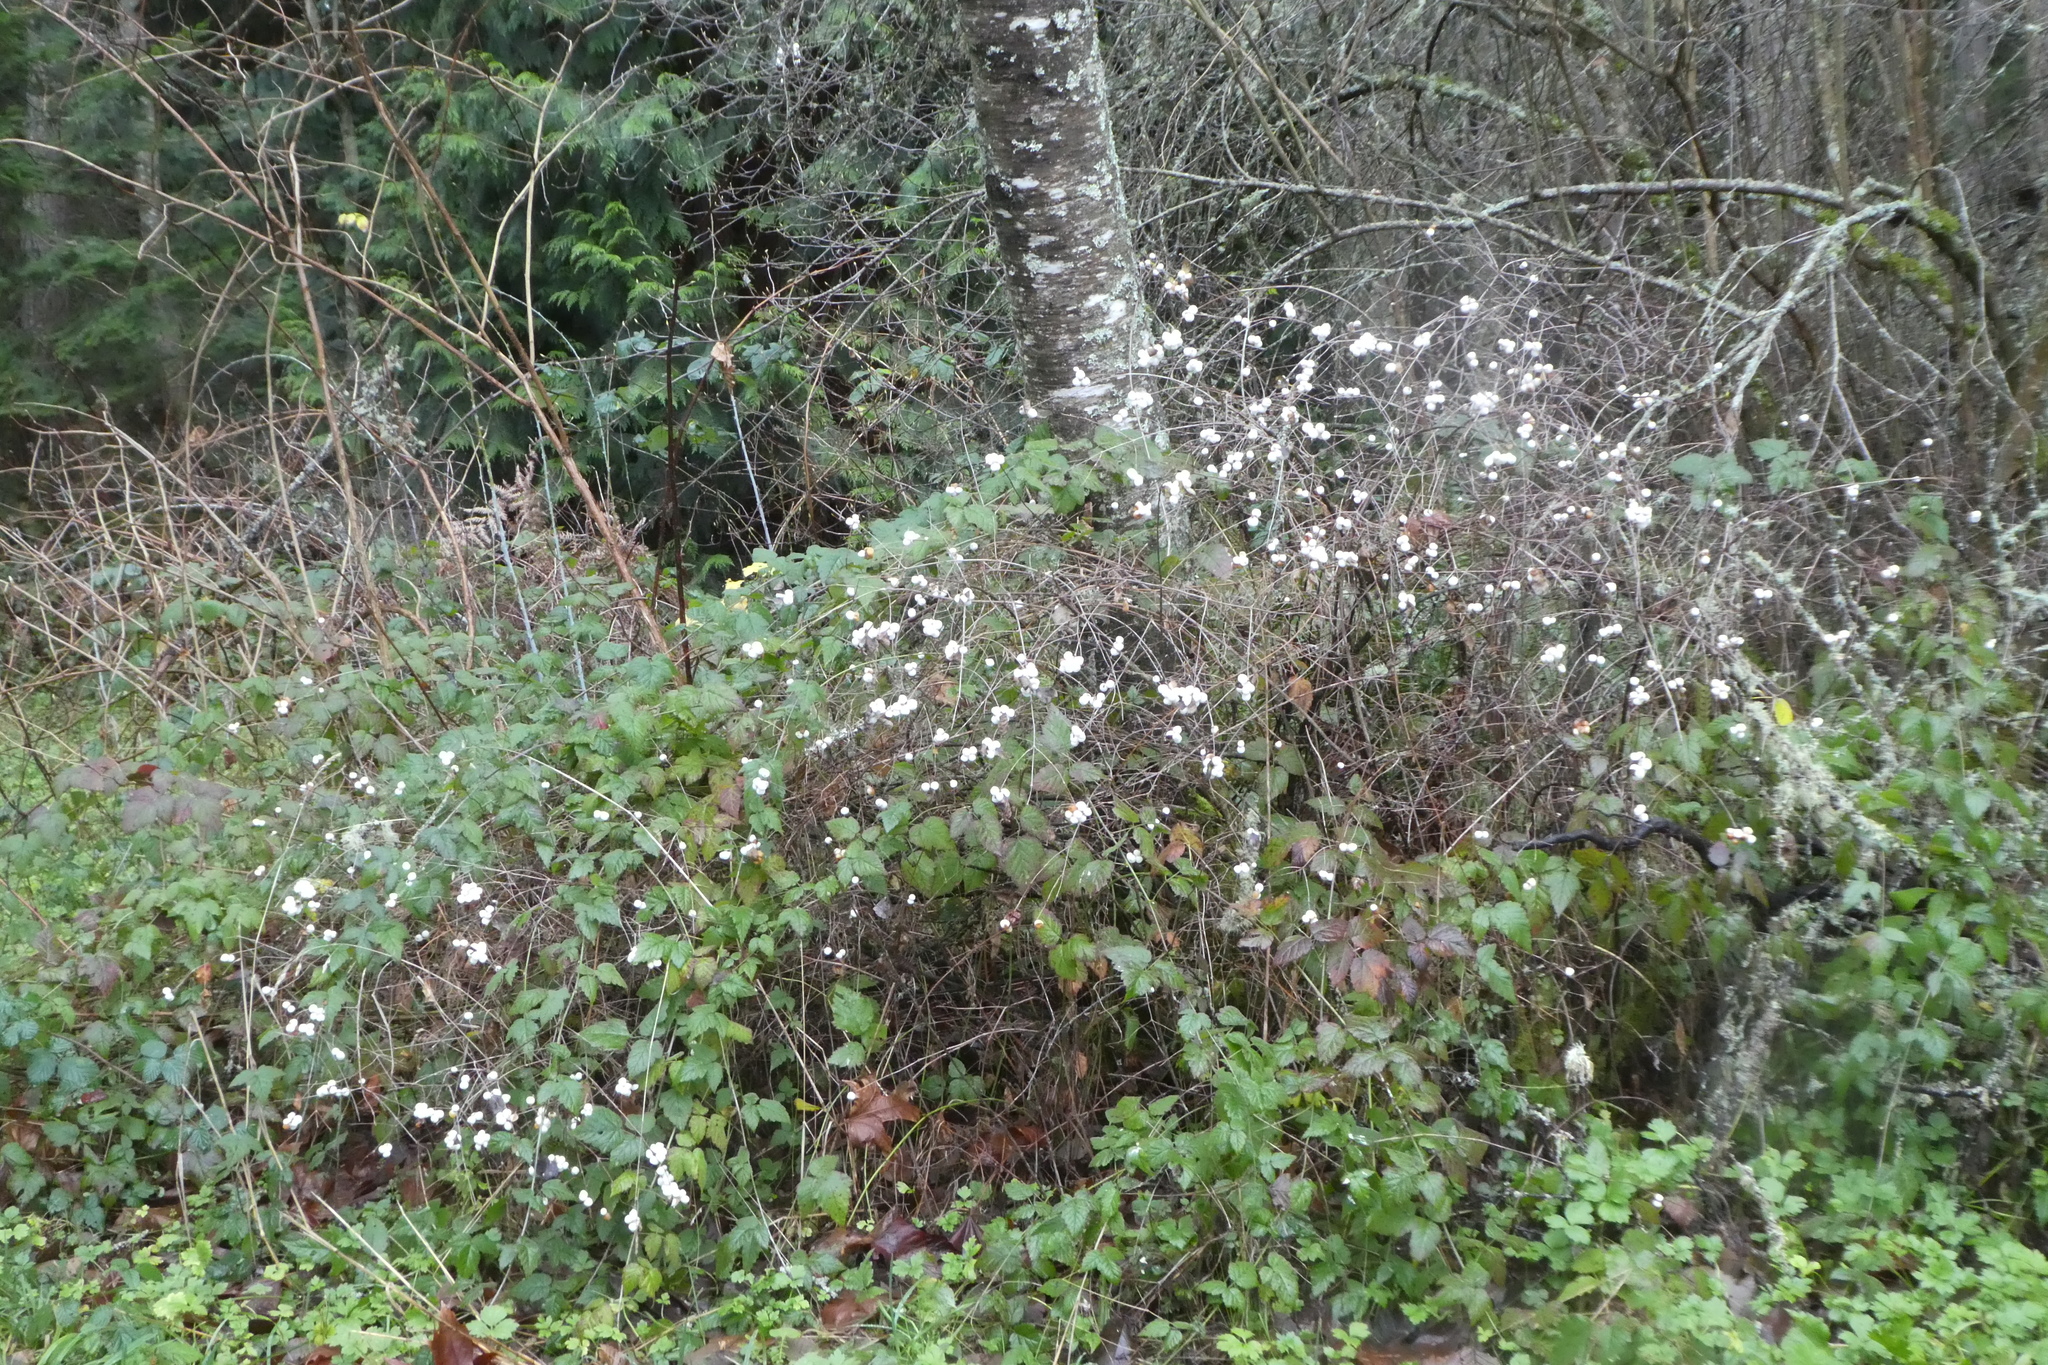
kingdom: Plantae
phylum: Tracheophyta
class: Magnoliopsida
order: Dipsacales
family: Caprifoliaceae
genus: Symphoricarpos
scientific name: Symphoricarpos albus
